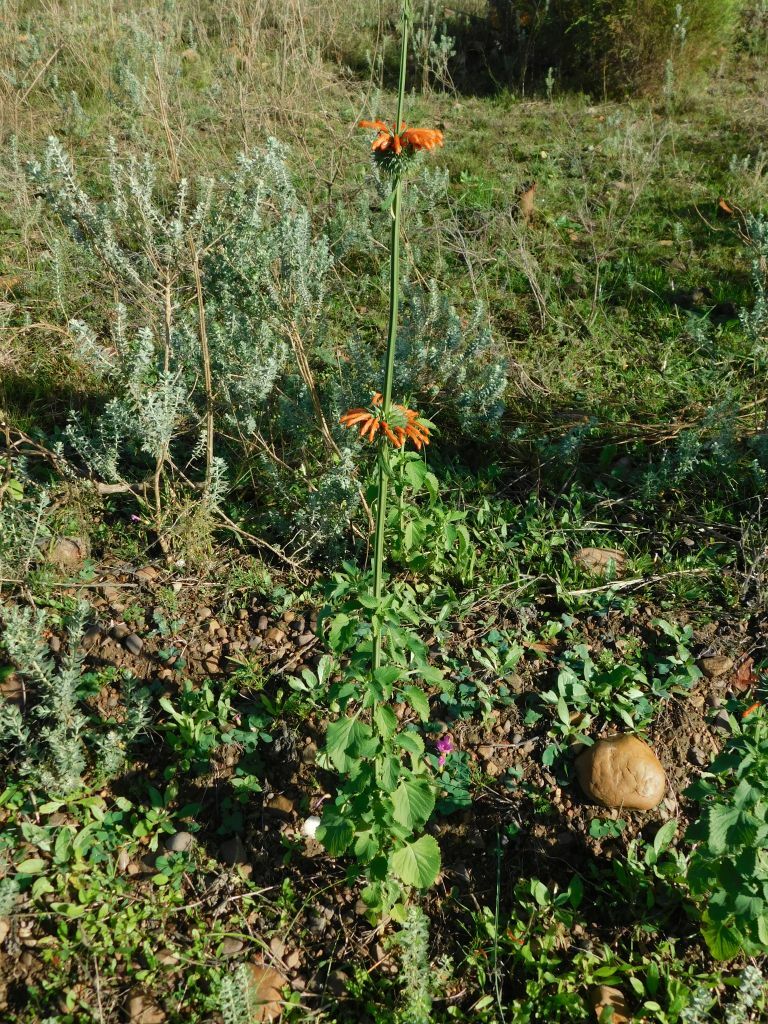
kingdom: Plantae
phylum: Tracheophyta
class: Magnoliopsida
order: Lamiales
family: Lamiaceae
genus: Leonotis
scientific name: Leonotis nepetifolia
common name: Christmas candlestick
